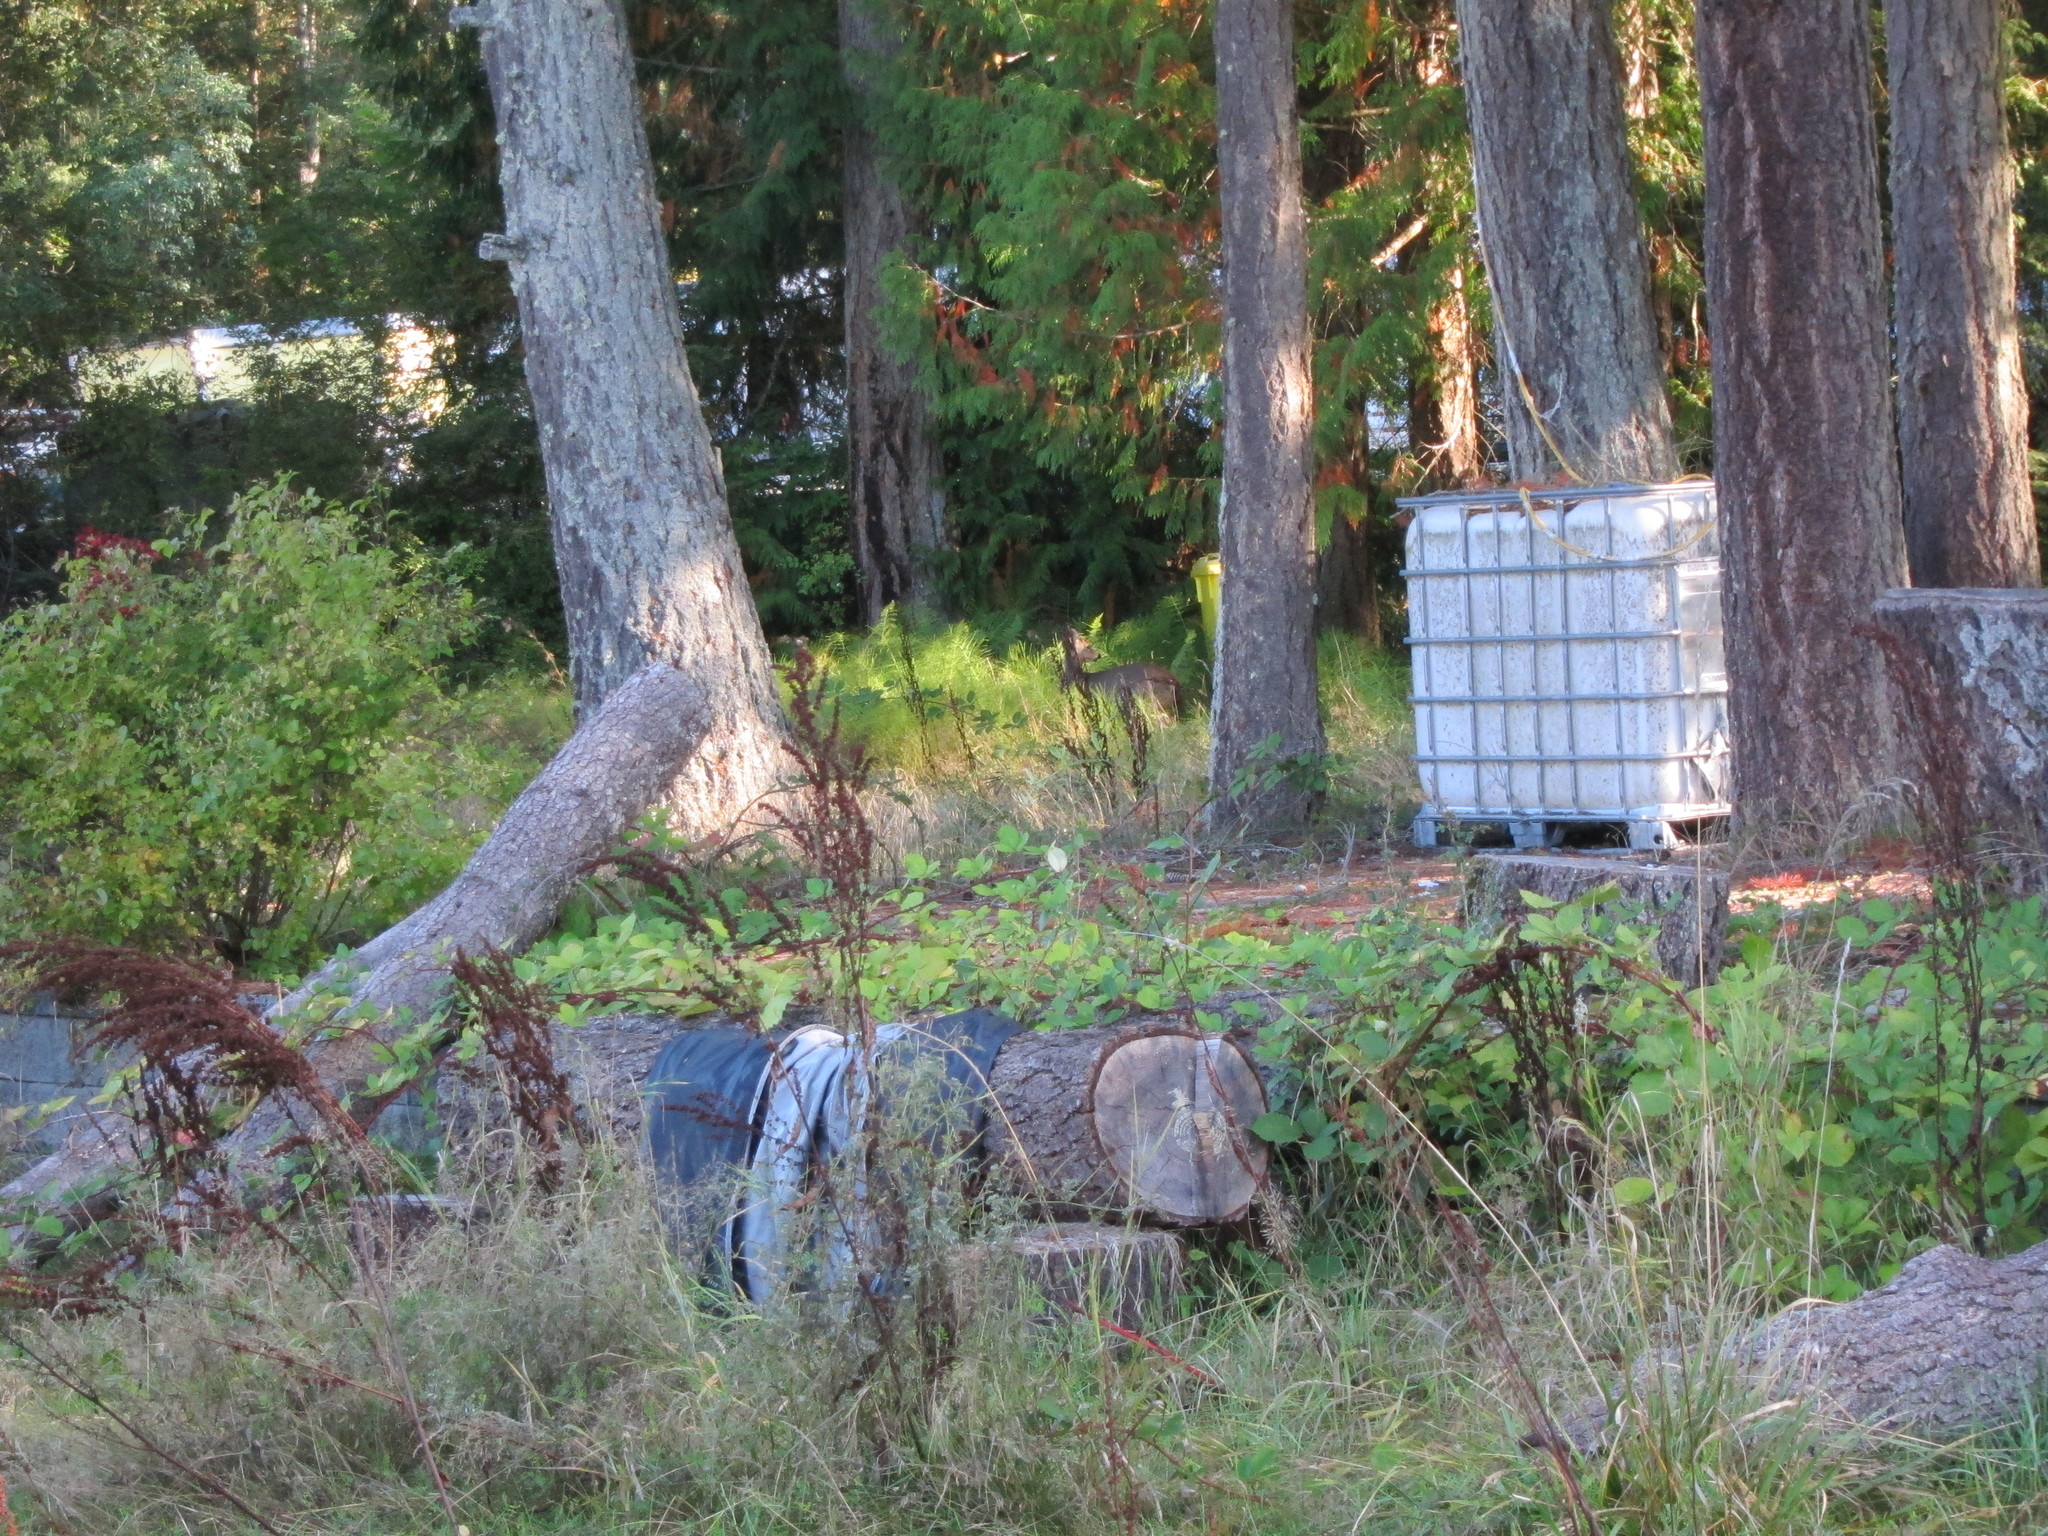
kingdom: Animalia
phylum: Chordata
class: Mammalia
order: Artiodactyla
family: Cervidae
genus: Odocoileus
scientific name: Odocoileus hemionus
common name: Mule deer
